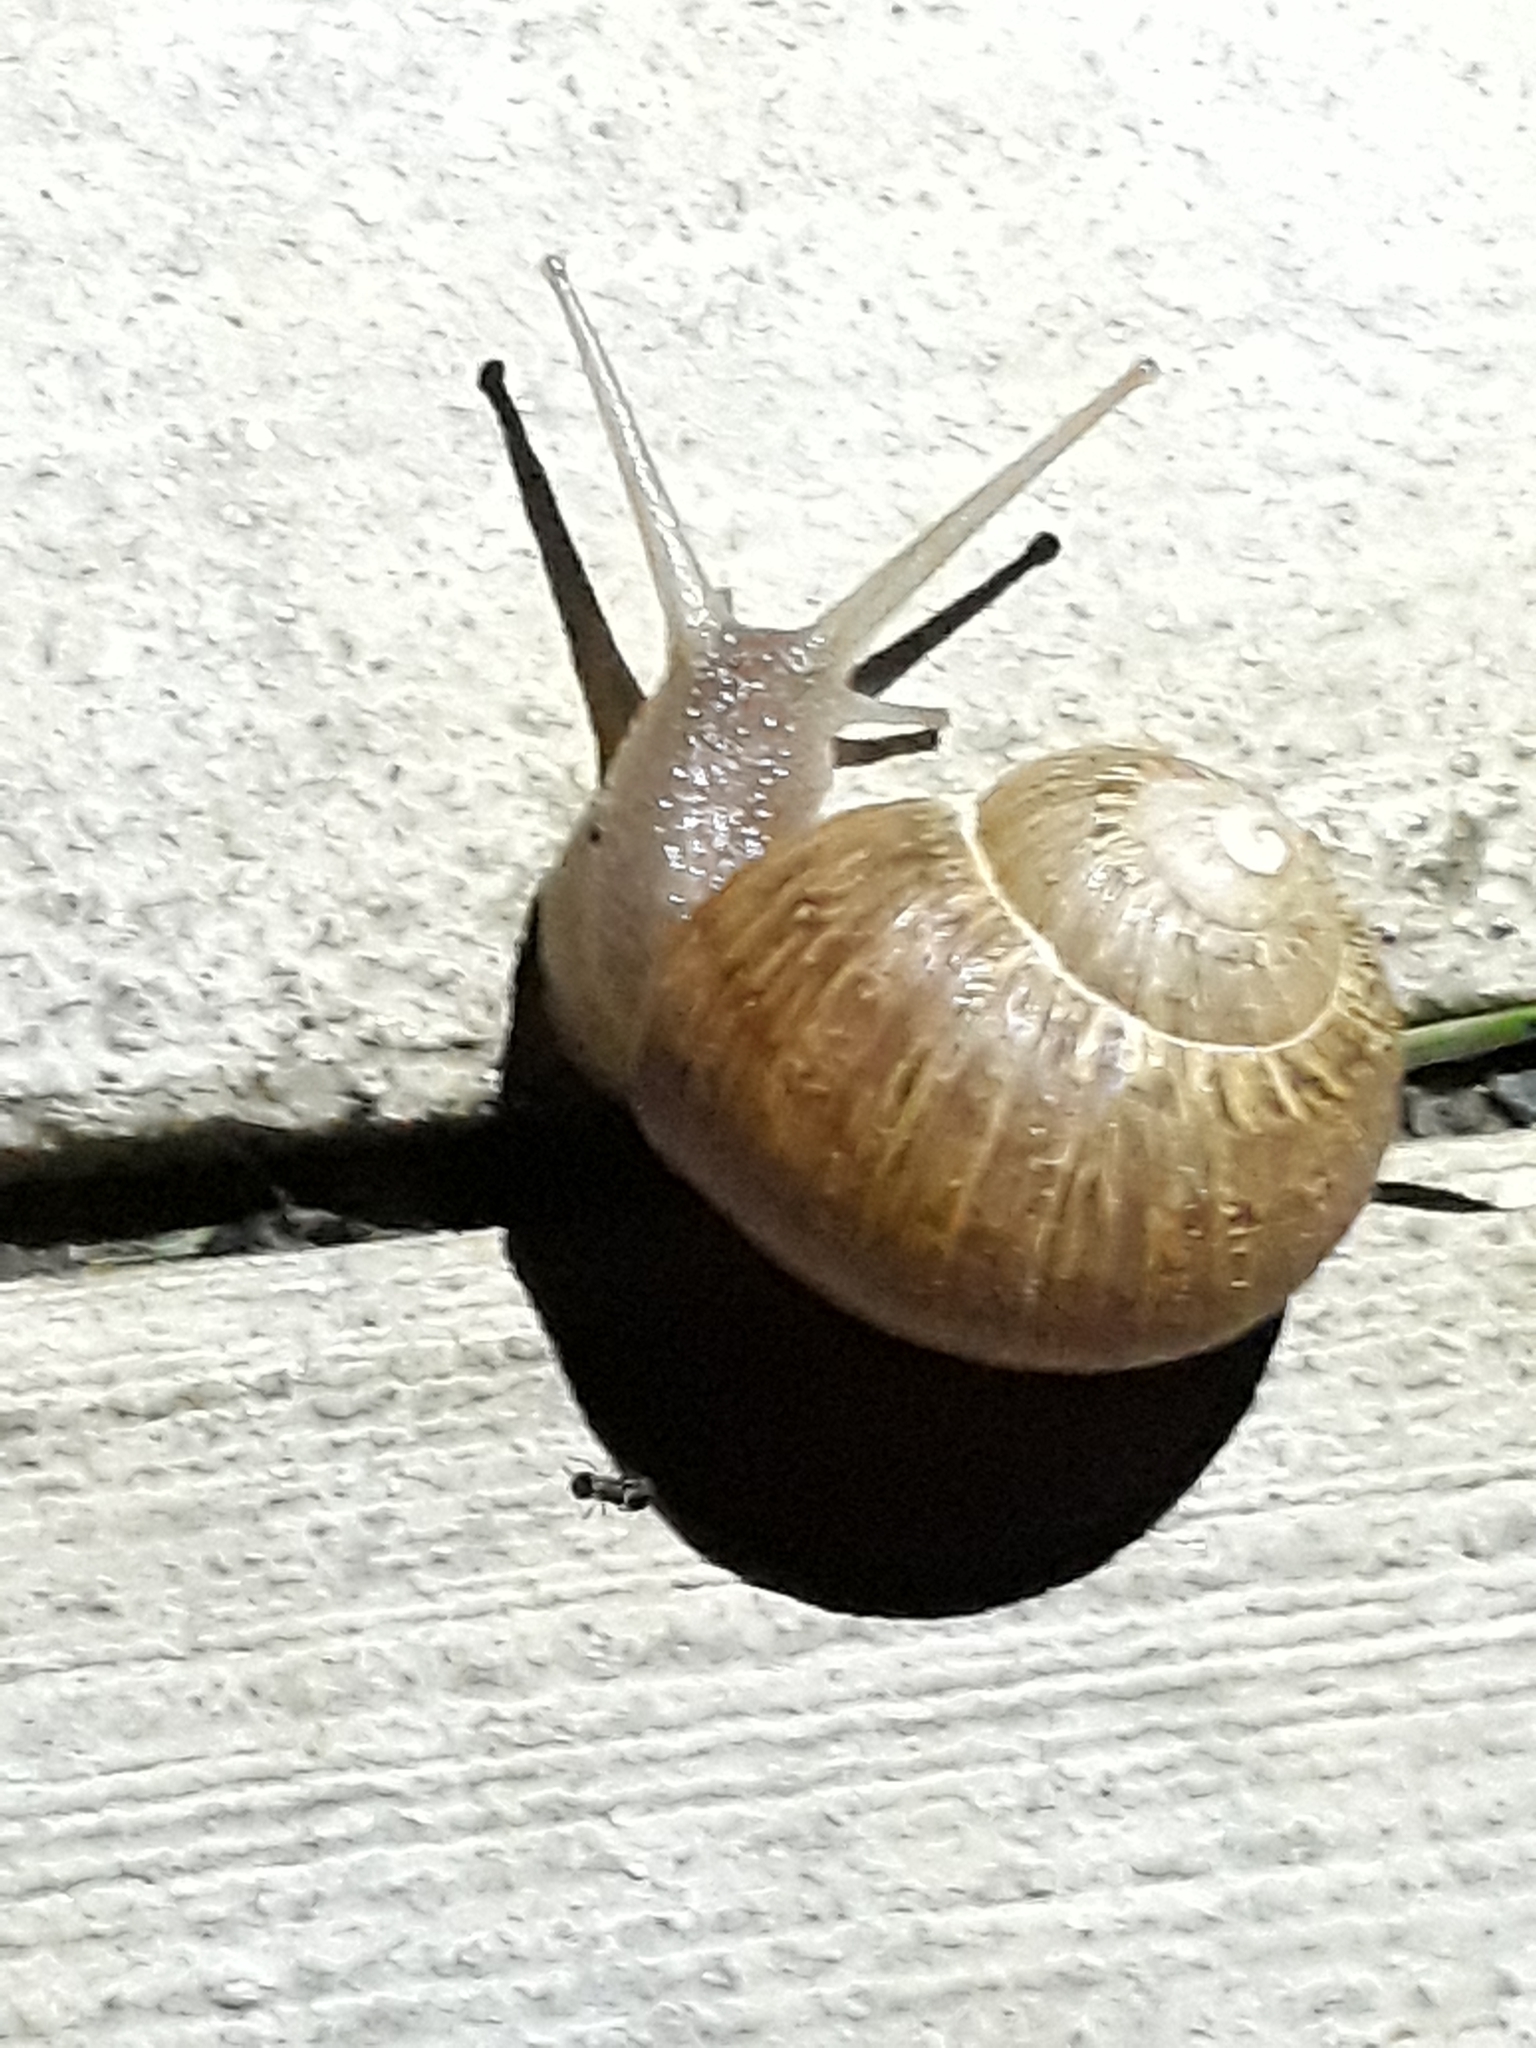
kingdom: Animalia
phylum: Mollusca
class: Gastropoda
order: Stylommatophora
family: Helicidae
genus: Cornu
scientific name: Cornu aspersum
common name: Brown garden snail
